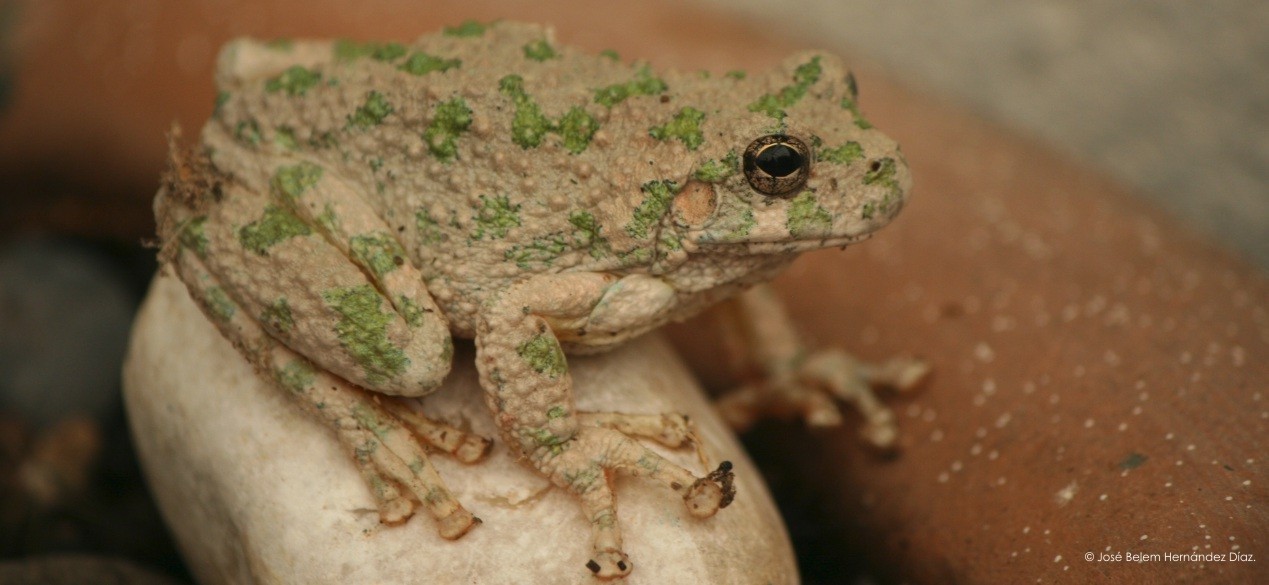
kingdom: Animalia
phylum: Chordata
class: Amphibia
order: Anura
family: Hylidae
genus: Dryophytes
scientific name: Dryophytes arenicolor
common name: Canyon treefrog
